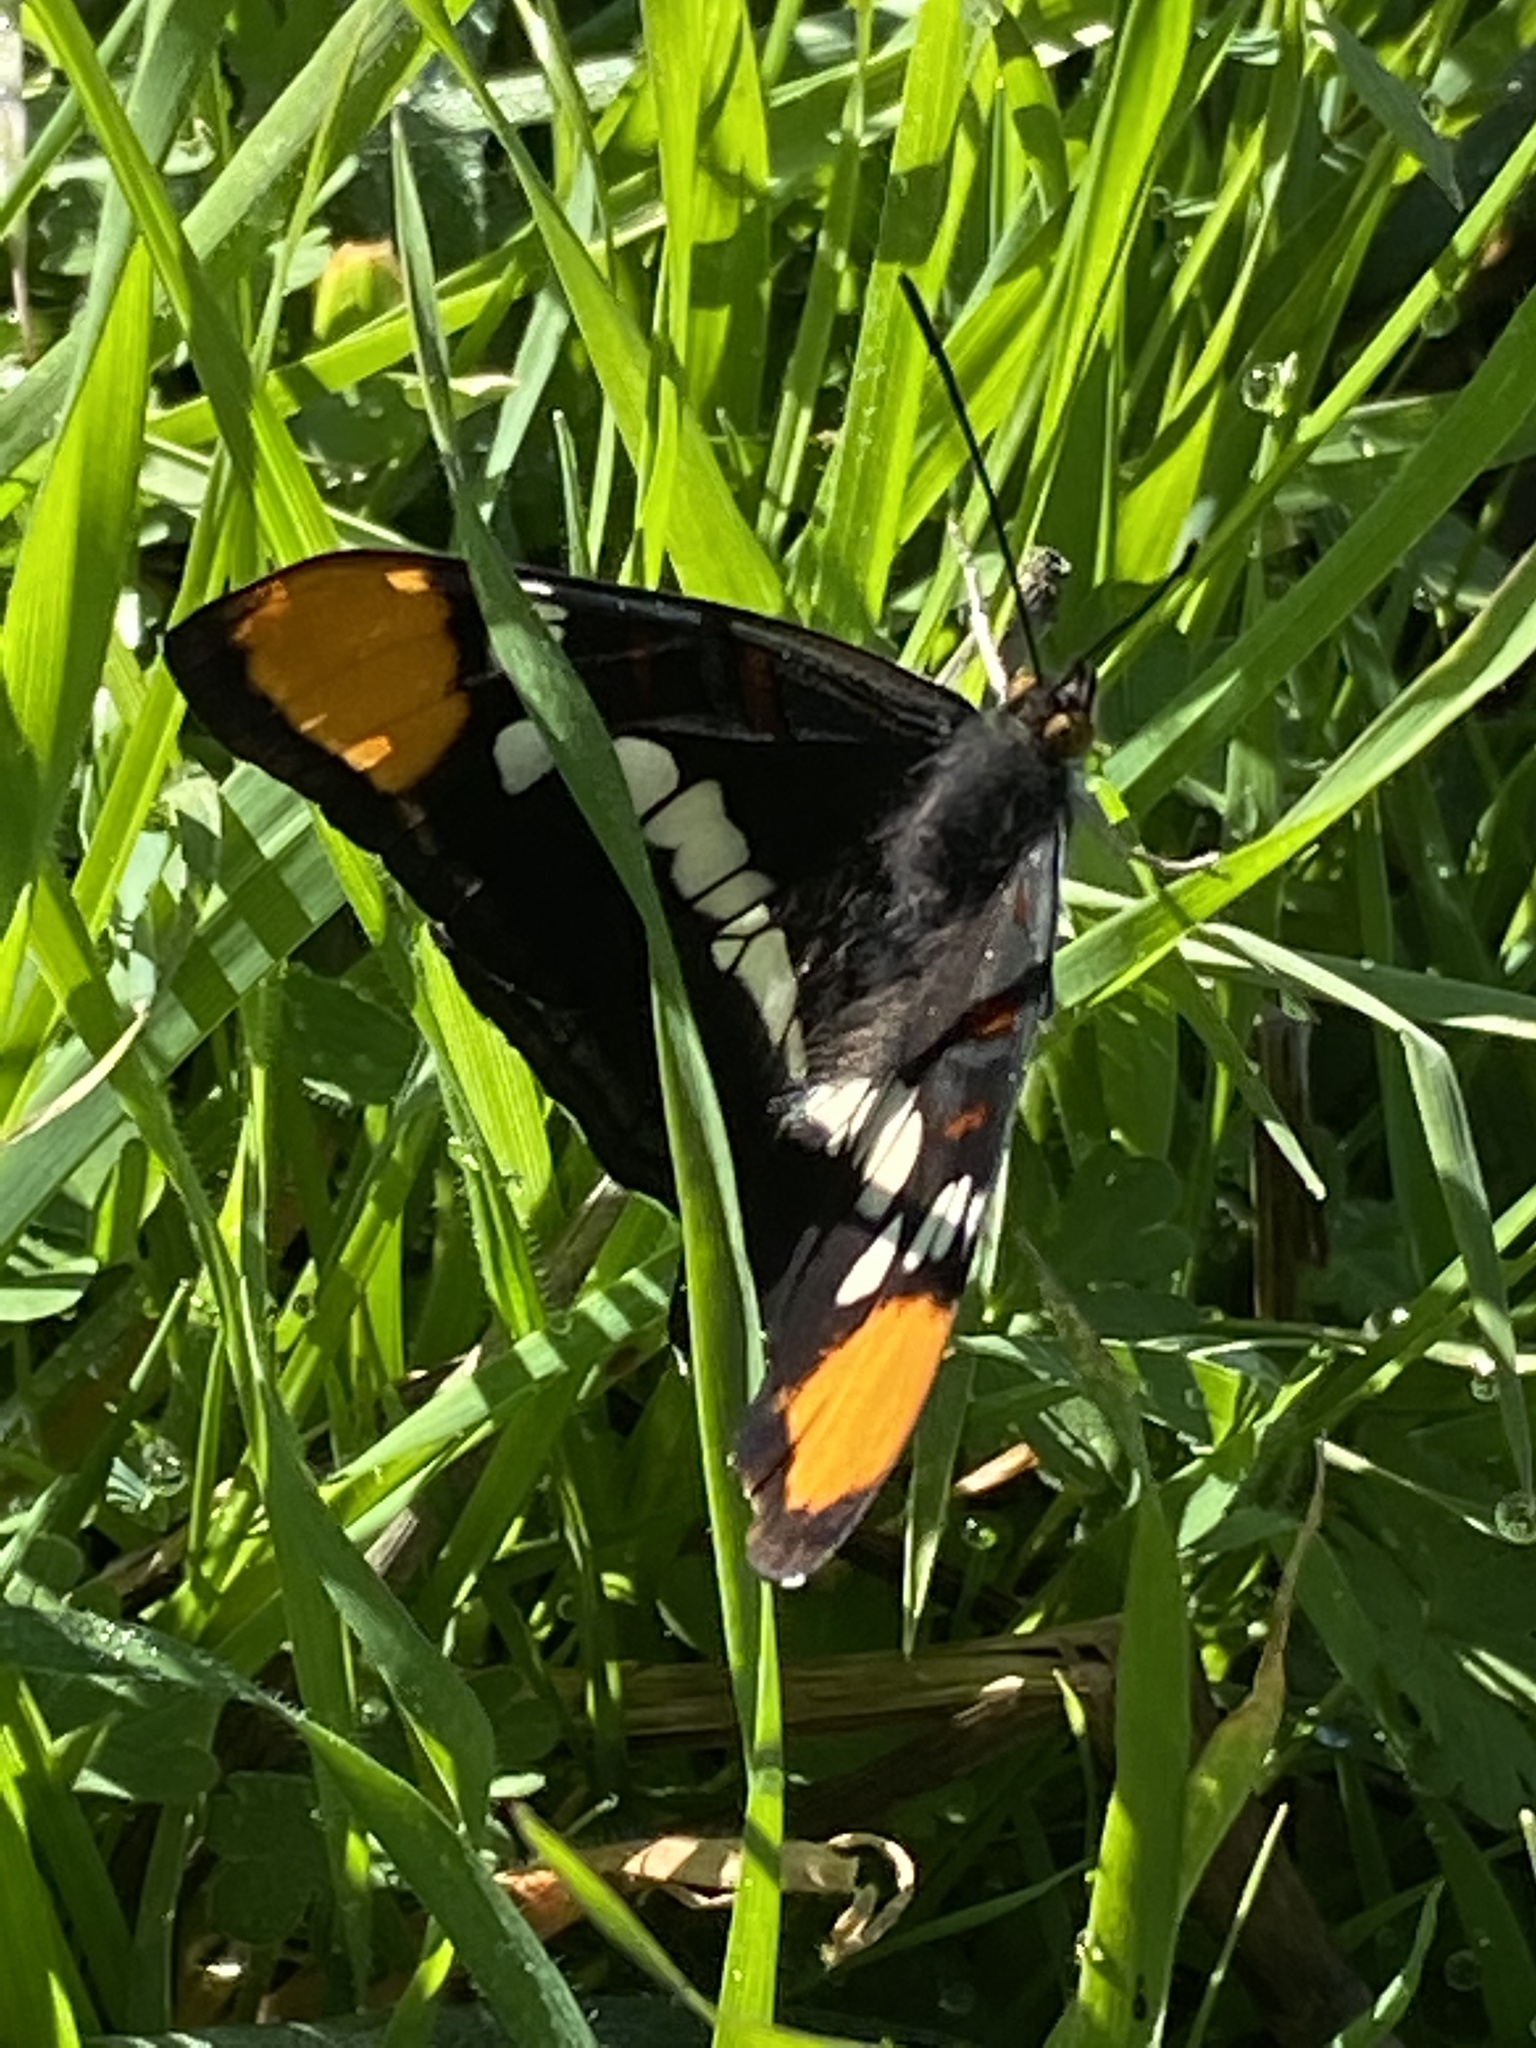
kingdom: Animalia
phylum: Arthropoda
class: Insecta
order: Lepidoptera
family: Nymphalidae
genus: Limenitis
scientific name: Limenitis bredowii
